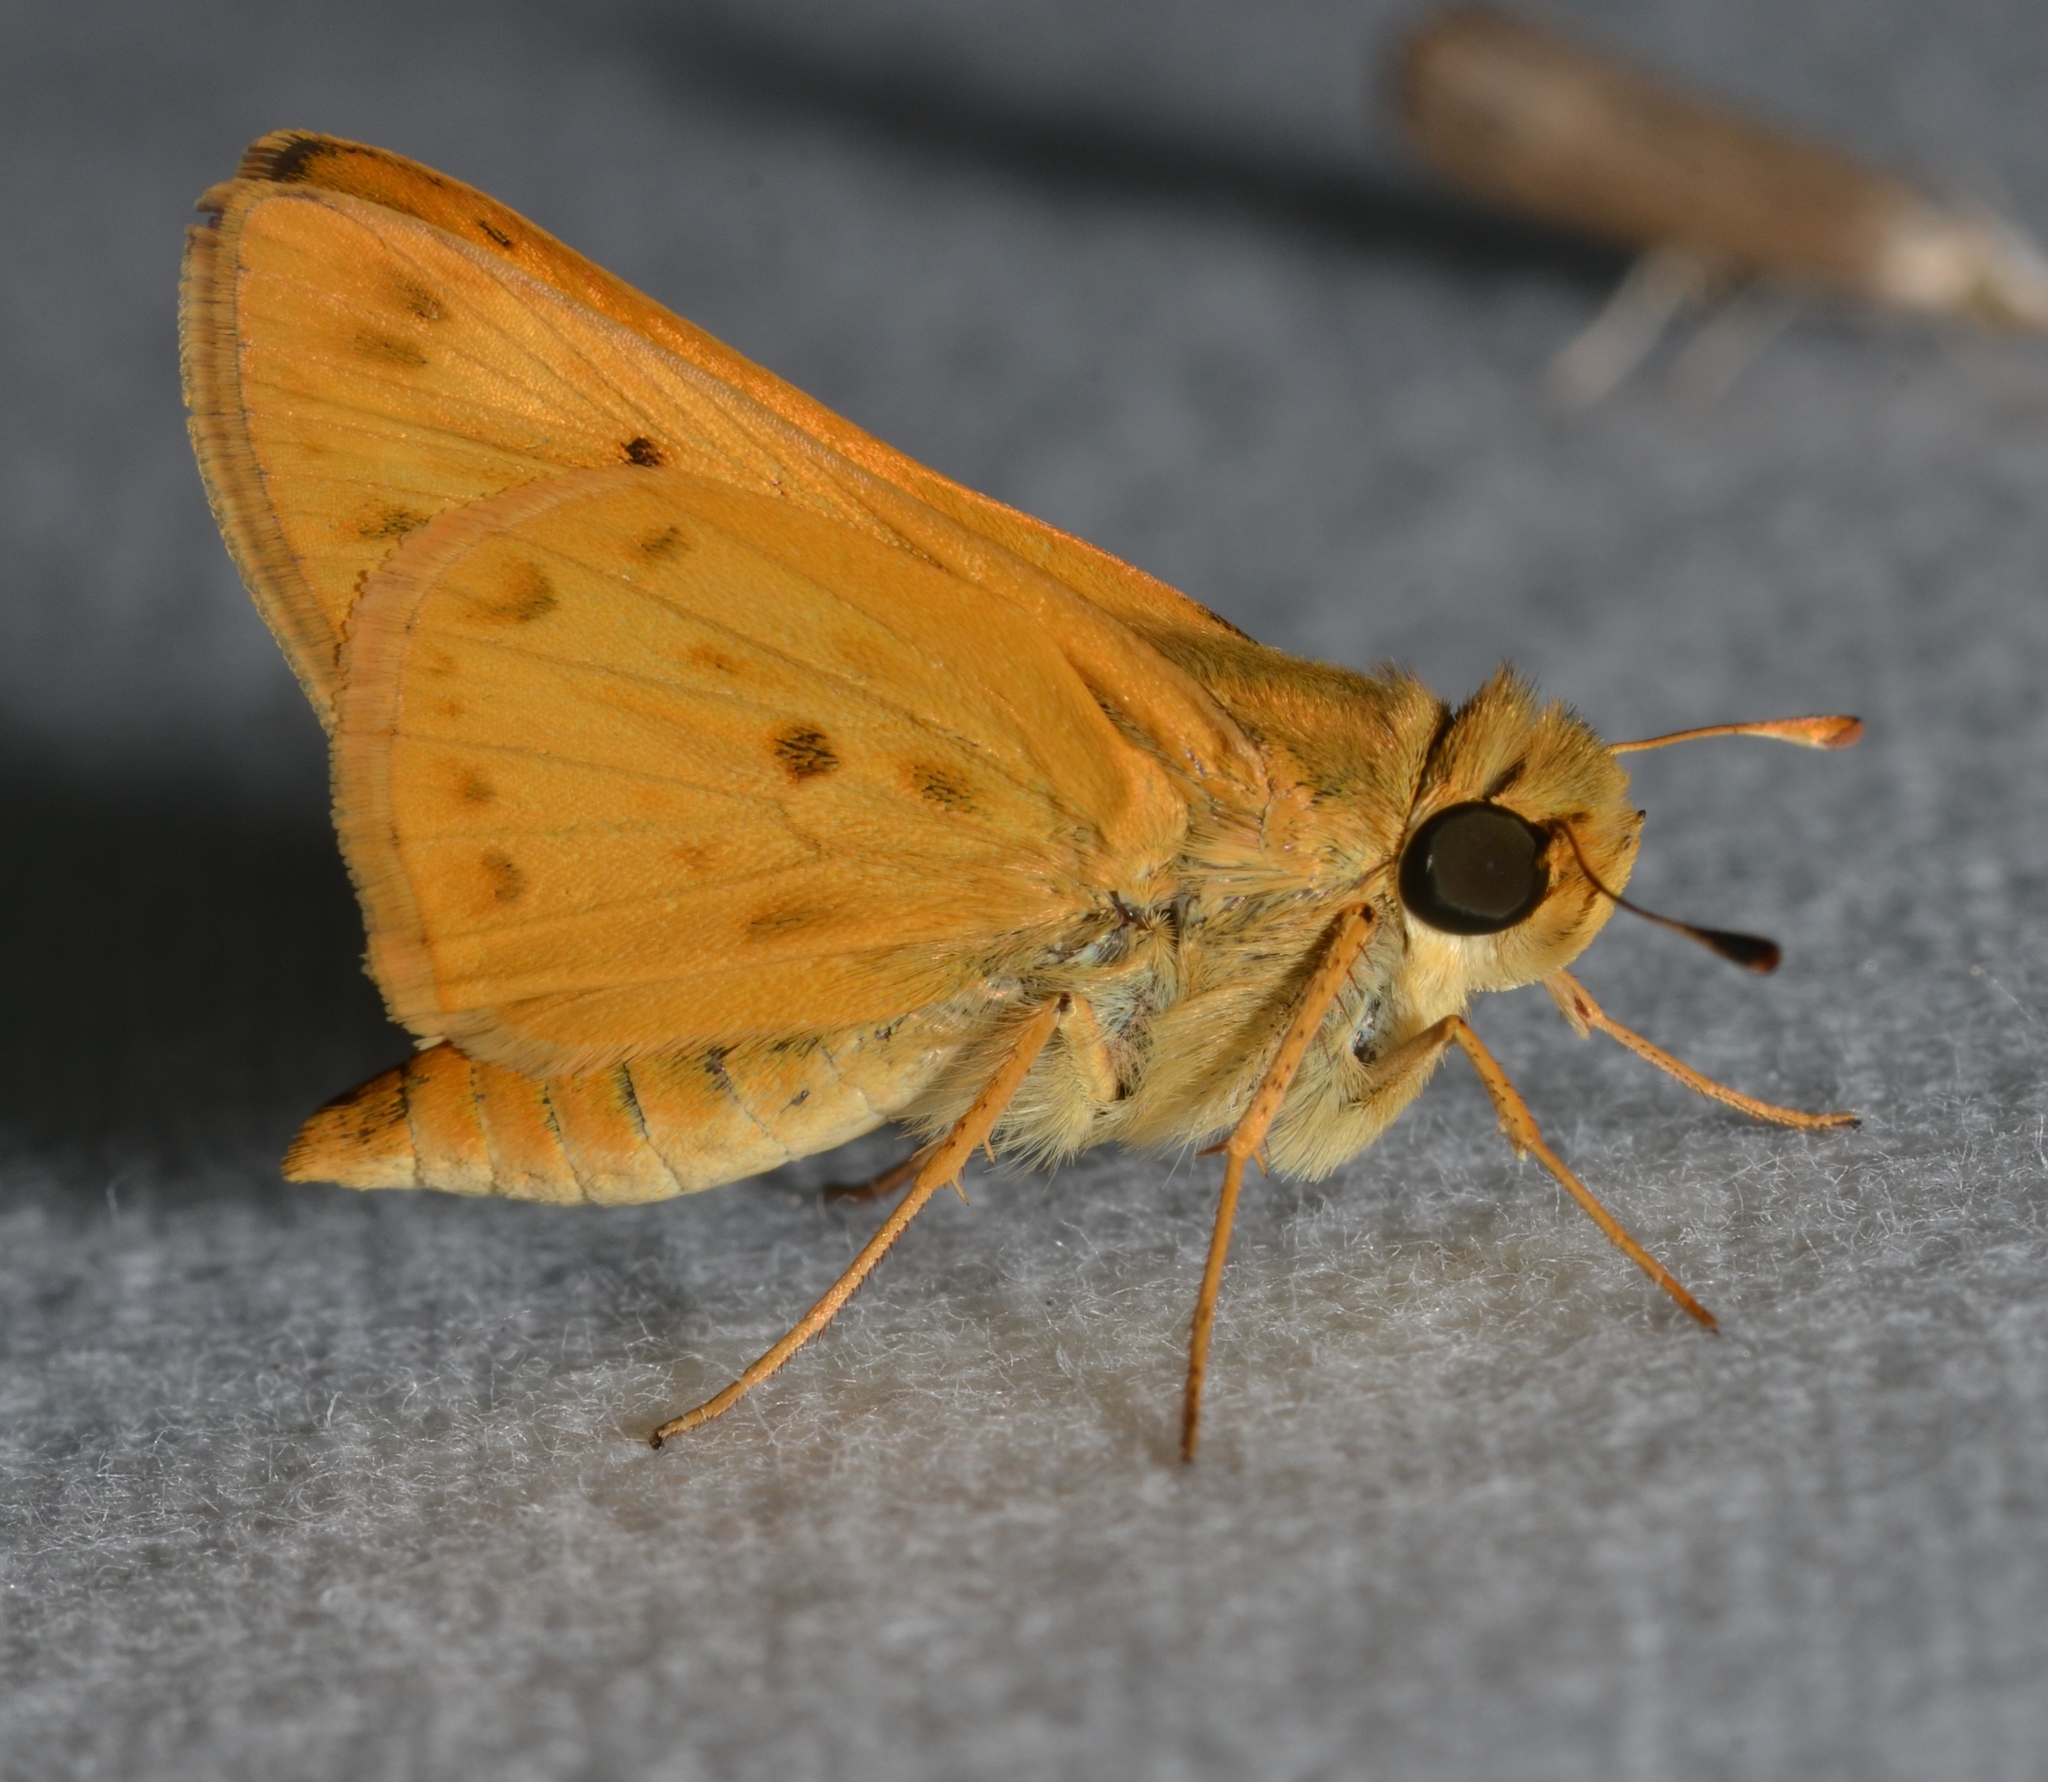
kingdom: Animalia
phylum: Arthropoda
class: Insecta
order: Lepidoptera
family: Hesperiidae
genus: Hylephila
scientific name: Hylephila phyleus
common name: Fiery skipper
